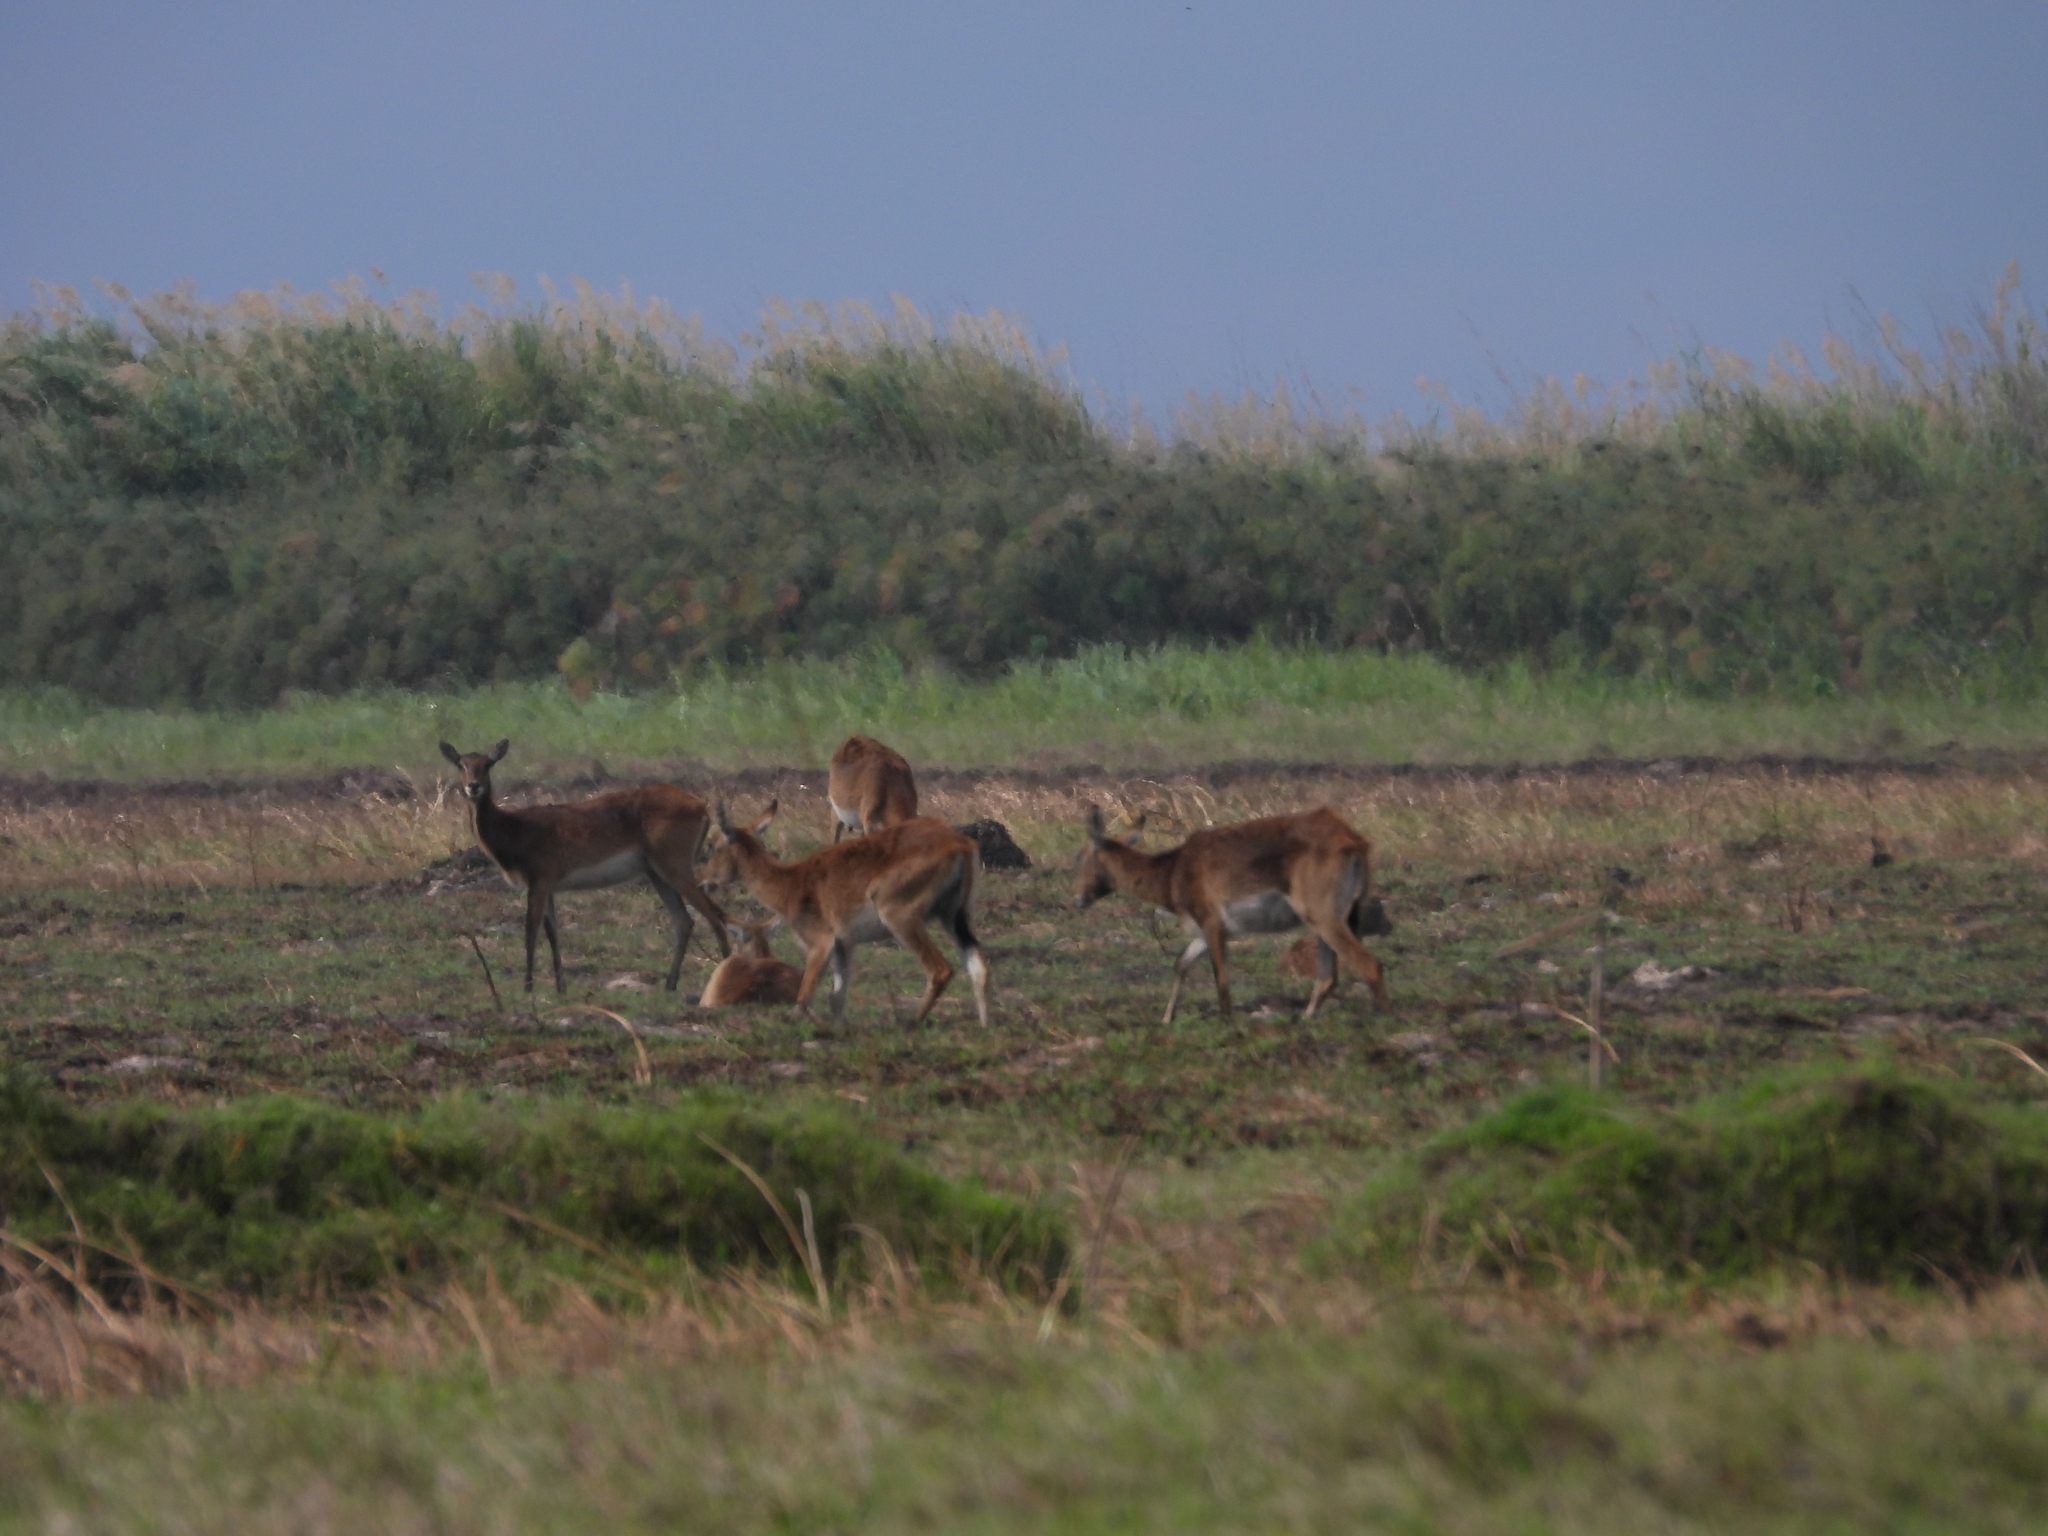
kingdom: Animalia
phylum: Chordata
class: Mammalia
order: Artiodactyla
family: Bovidae
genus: Kobus
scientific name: Kobus leche
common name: Lechwe
